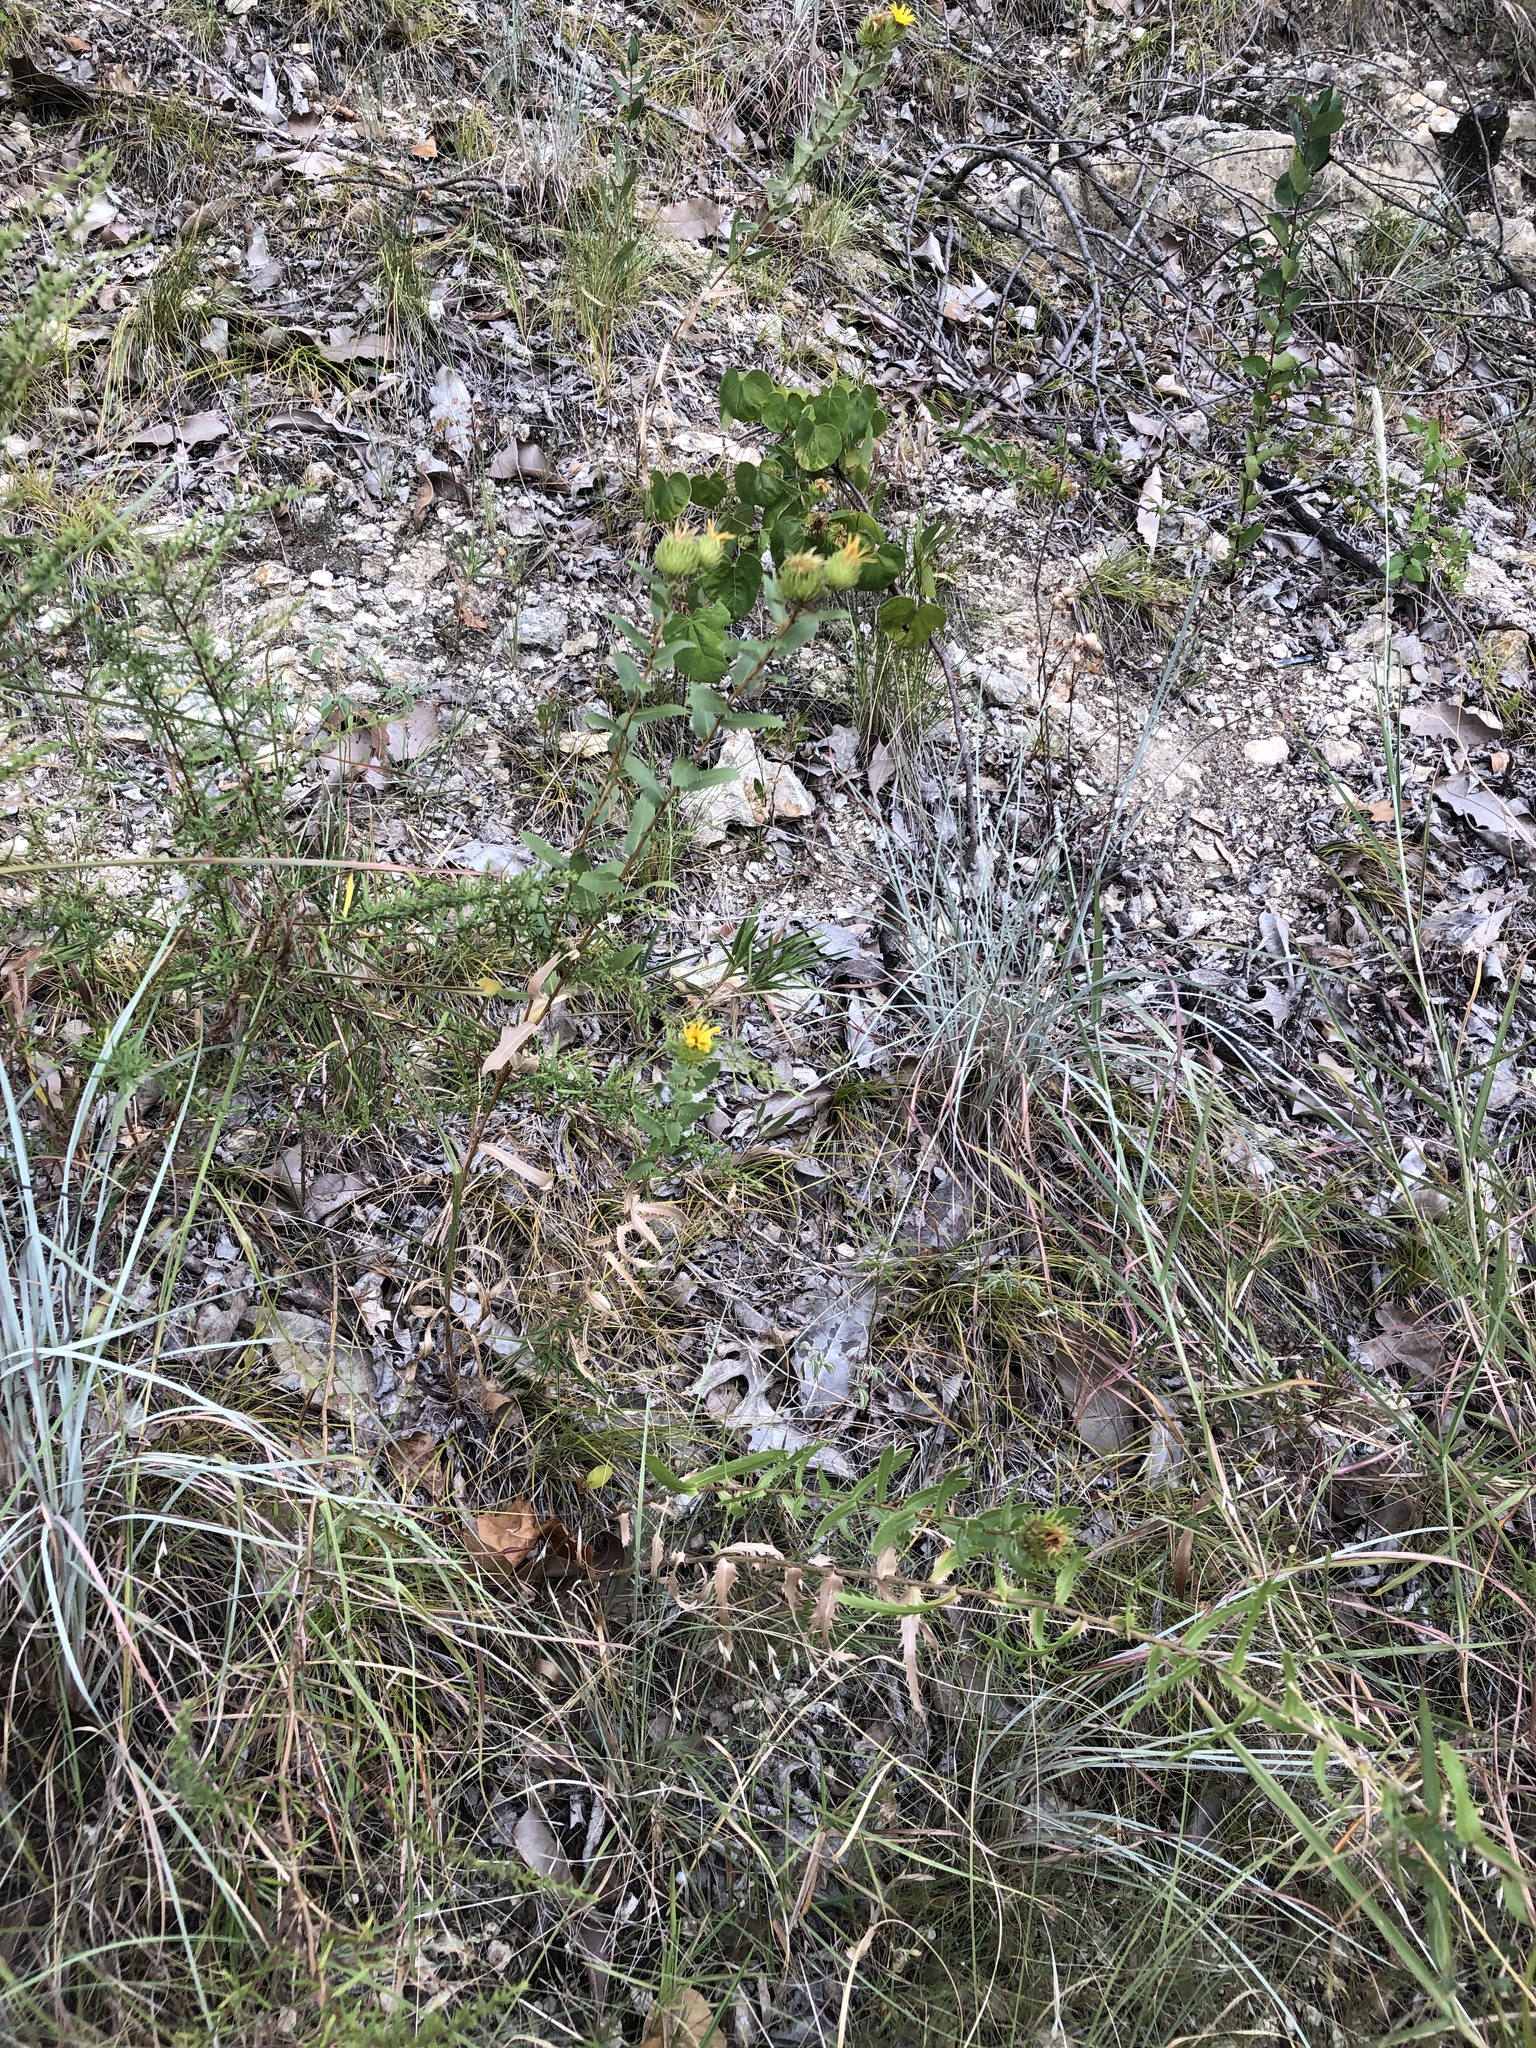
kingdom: Plantae
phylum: Tracheophyta
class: Magnoliopsida
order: Asterales
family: Asteraceae
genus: Grindelia
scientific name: Grindelia lanceolata
